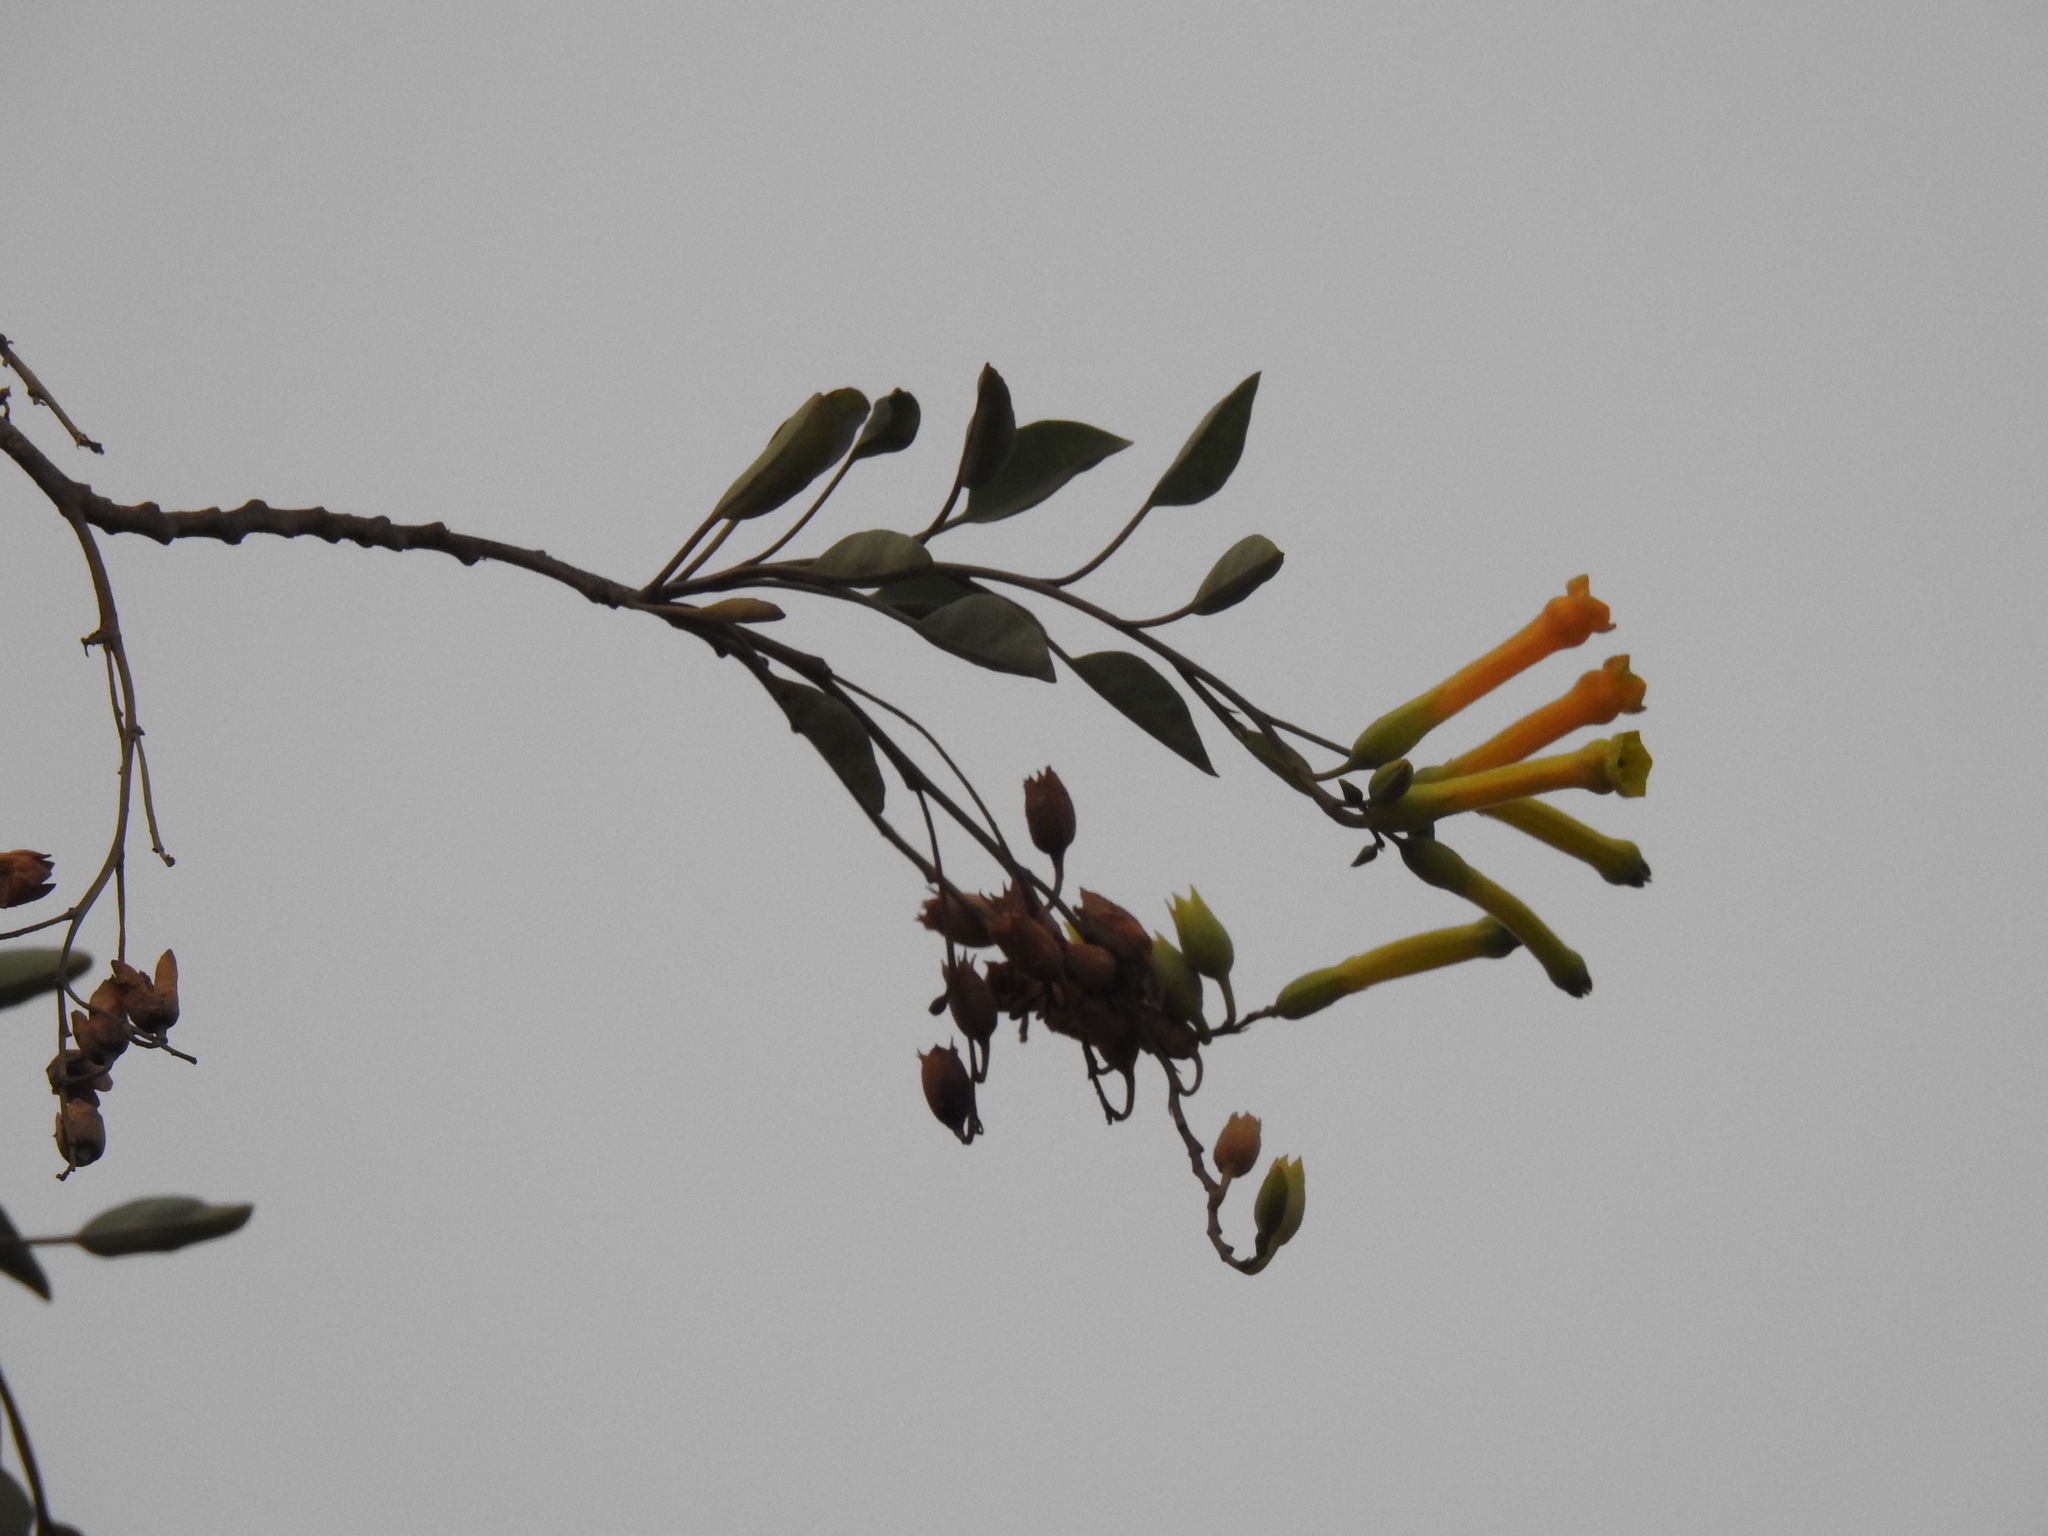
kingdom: Plantae
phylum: Tracheophyta
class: Magnoliopsida
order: Solanales
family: Solanaceae
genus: Nicotiana
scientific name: Nicotiana glauca
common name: Tree tobacco
